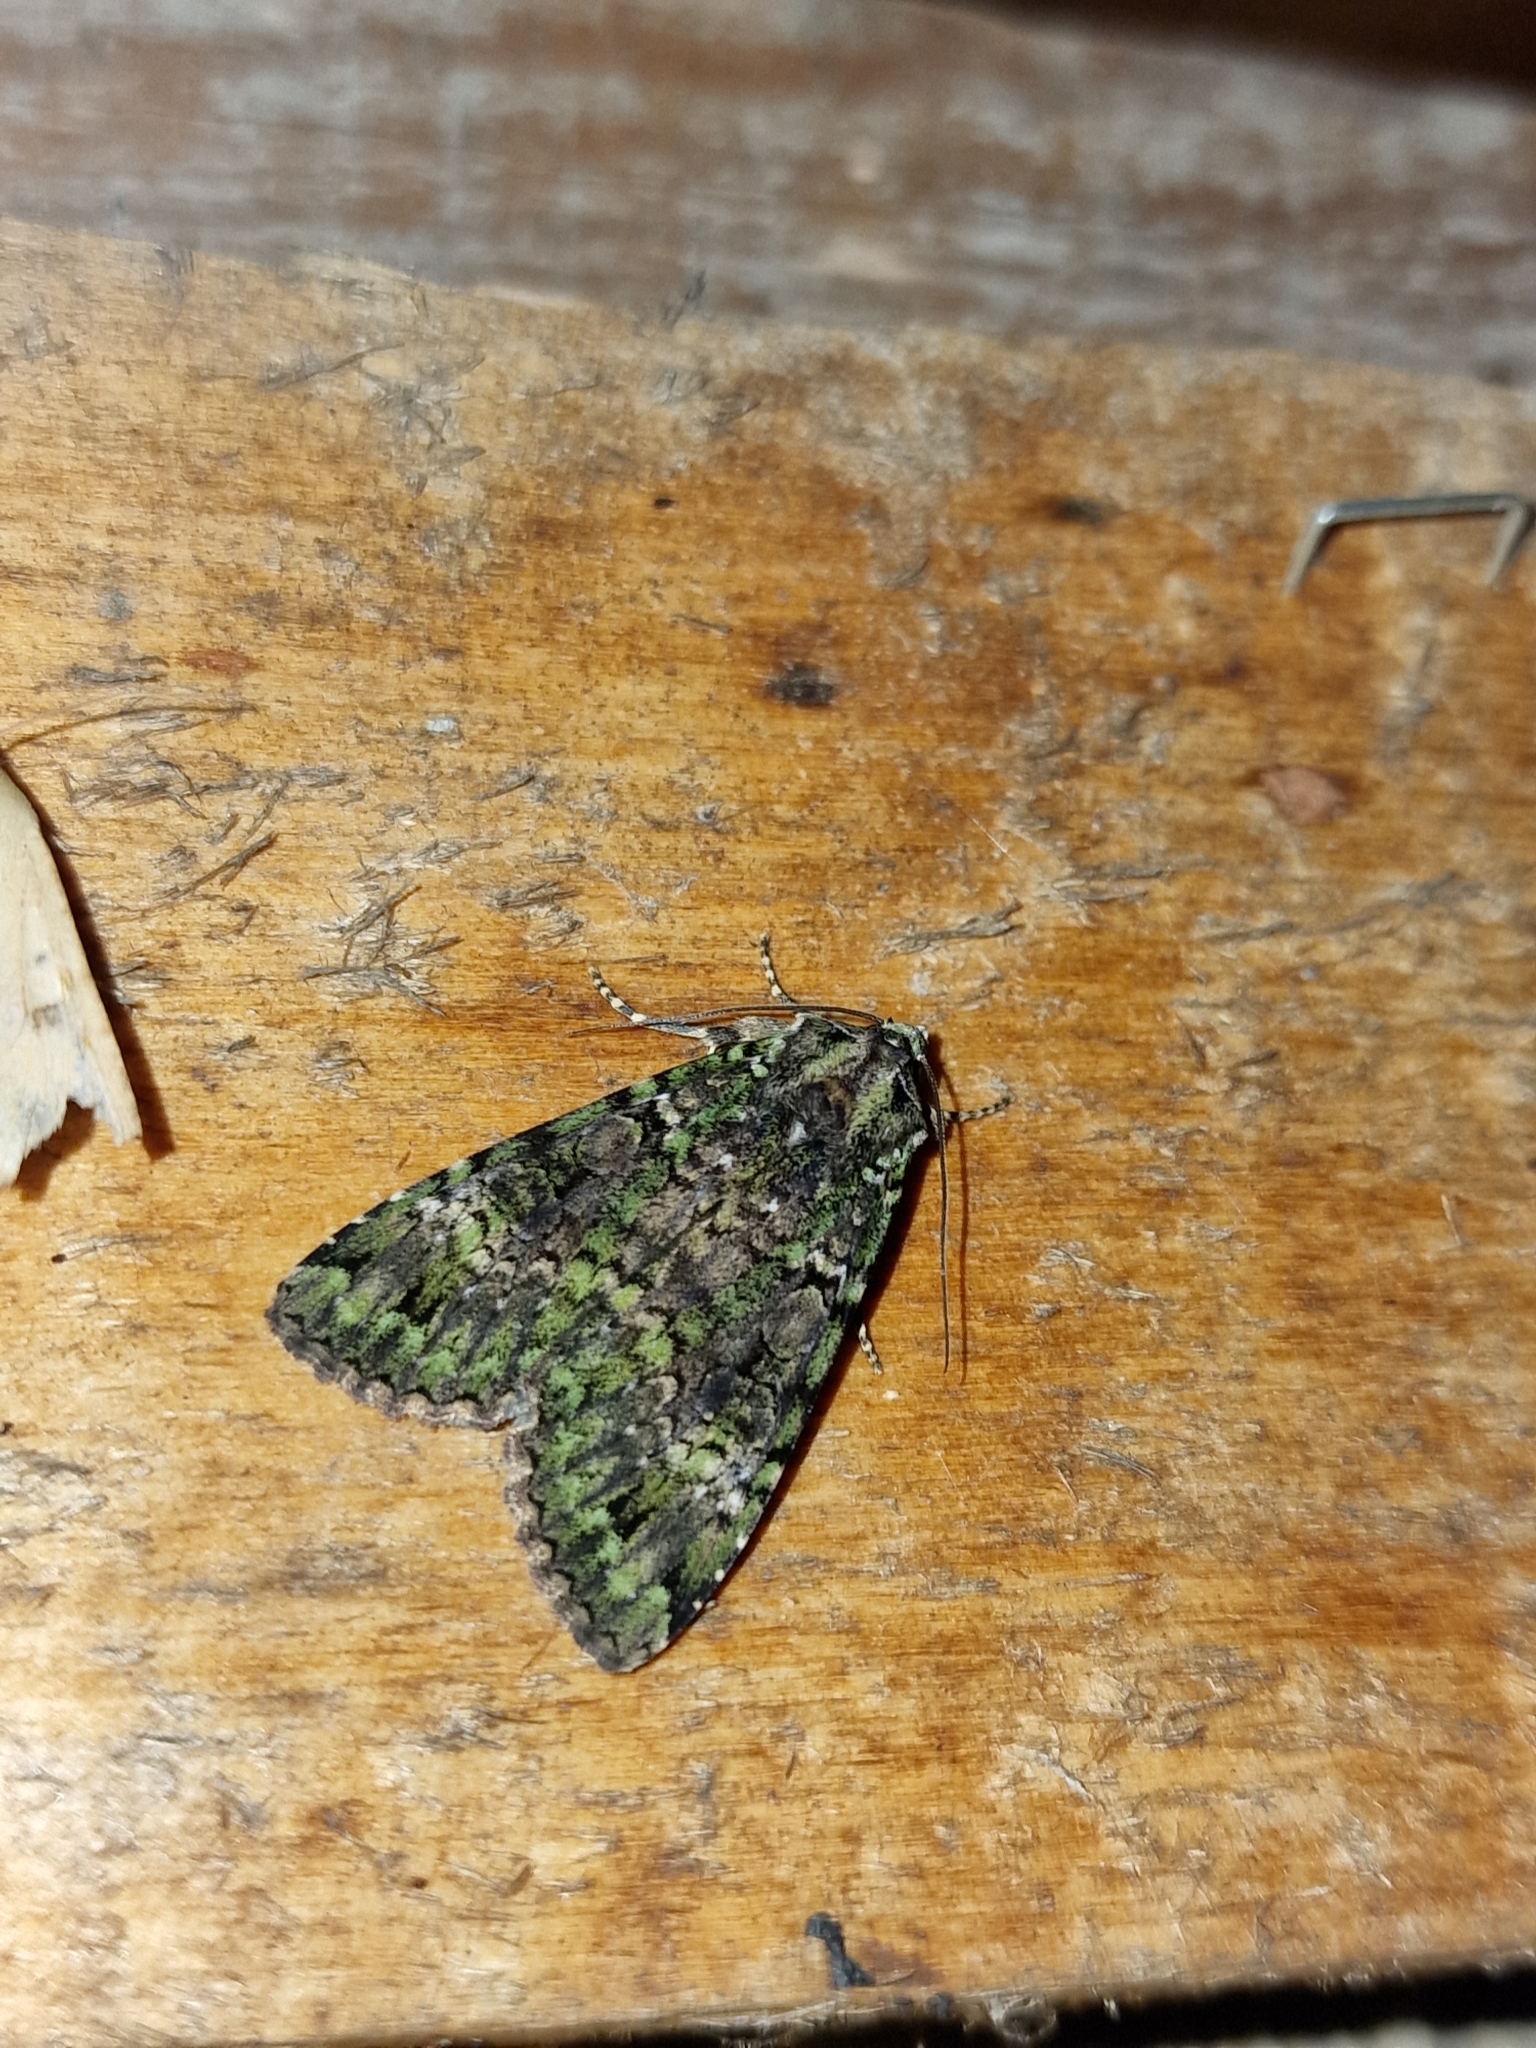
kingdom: Animalia
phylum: Arthropoda
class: Insecta
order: Lepidoptera
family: Noctuidae
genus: Anaplectoides
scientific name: Anaplectoides prasina
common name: Green arches
